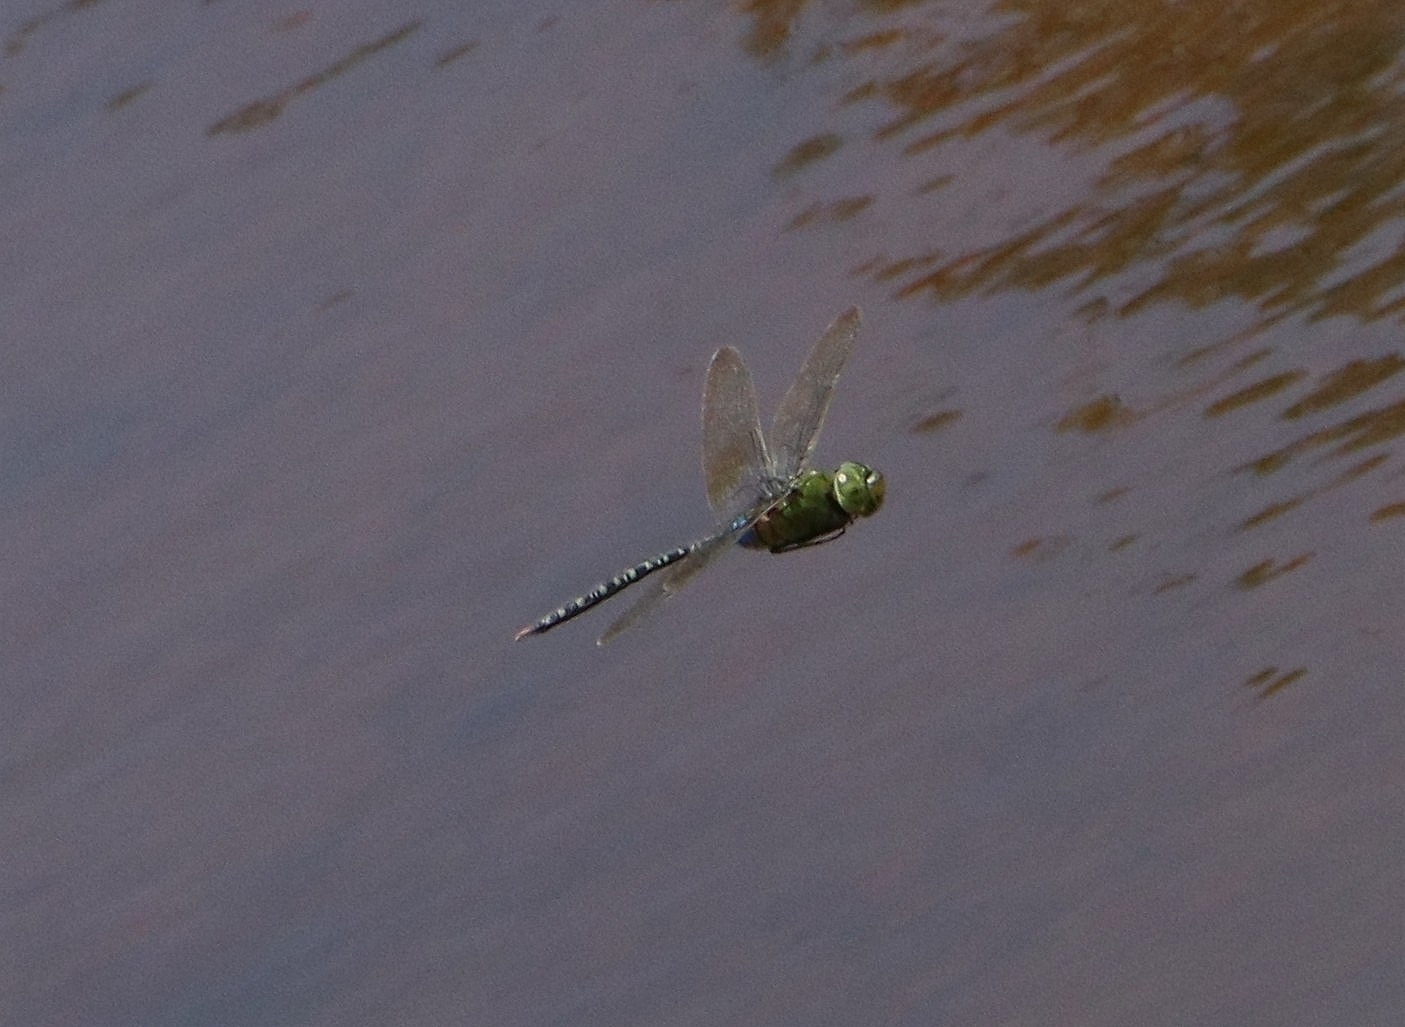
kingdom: Animalia
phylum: Arthropoda
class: Insecta
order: Odonata
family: Aeshnidae
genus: Anax
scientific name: Anax guttatus
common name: Emperor
